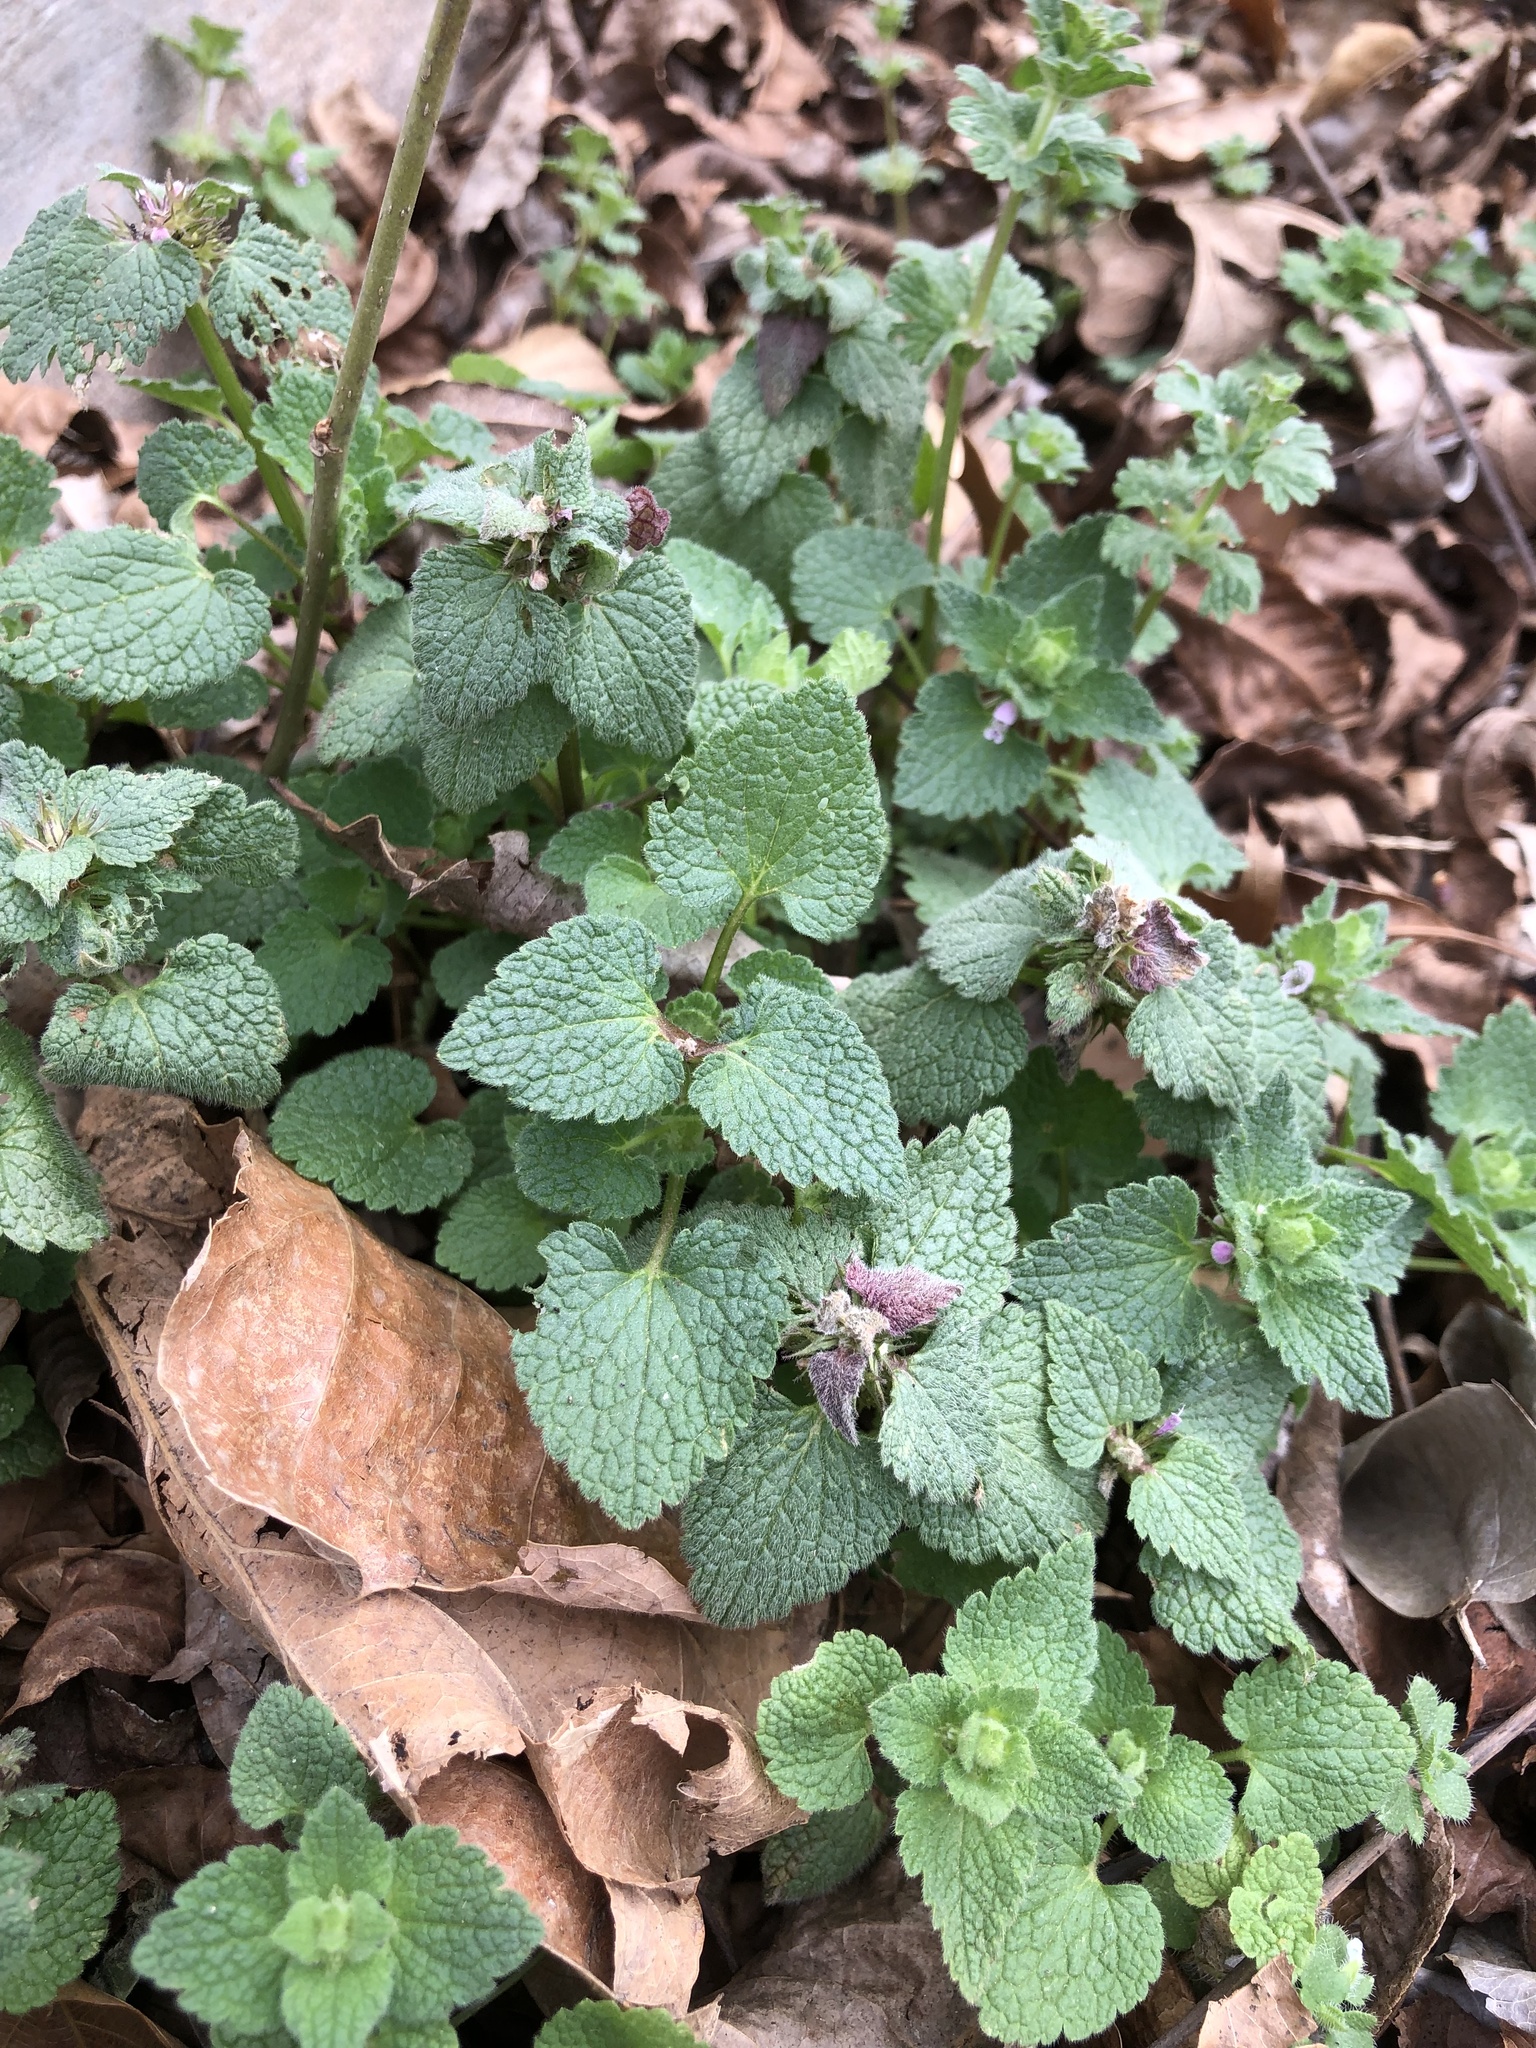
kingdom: Plantae
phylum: Tracheophyta
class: Magnoliopsida
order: Lamiales
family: Lamiaceae
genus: Lamium
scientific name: Lamium purpureum
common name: Red dead-nettle
